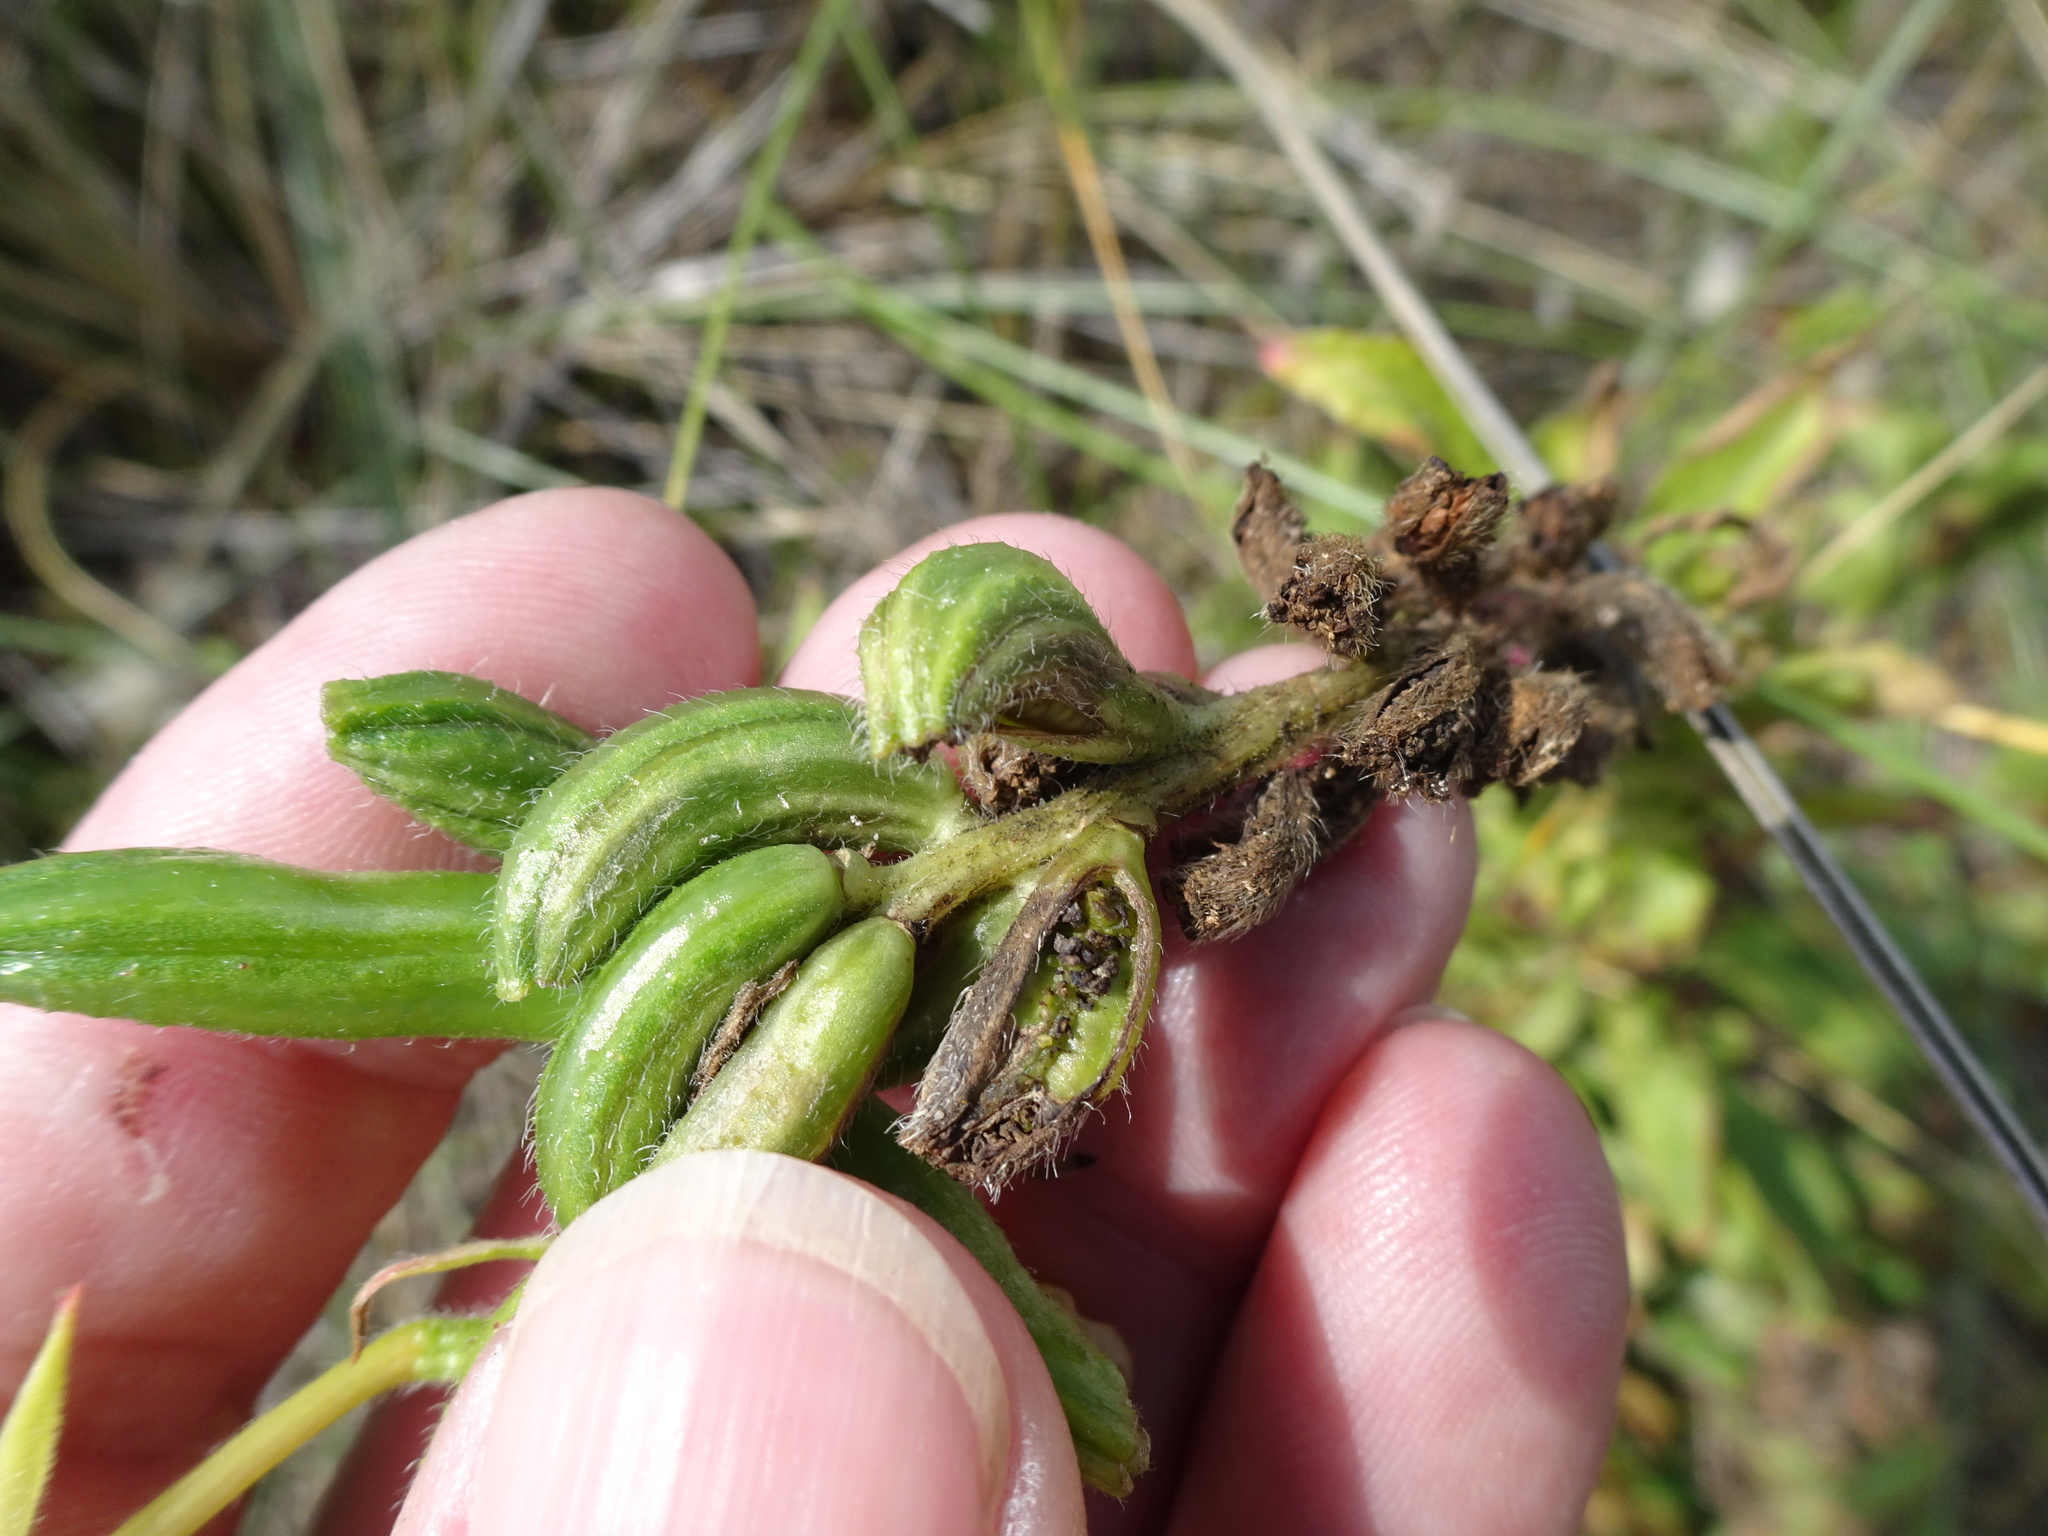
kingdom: Plantae
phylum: Tracheophyta
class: Magnoliopsida
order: Myrtales
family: Onagraceae
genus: Oenothera
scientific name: Oenothera cambrica
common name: Small-flowered evening-primrose
